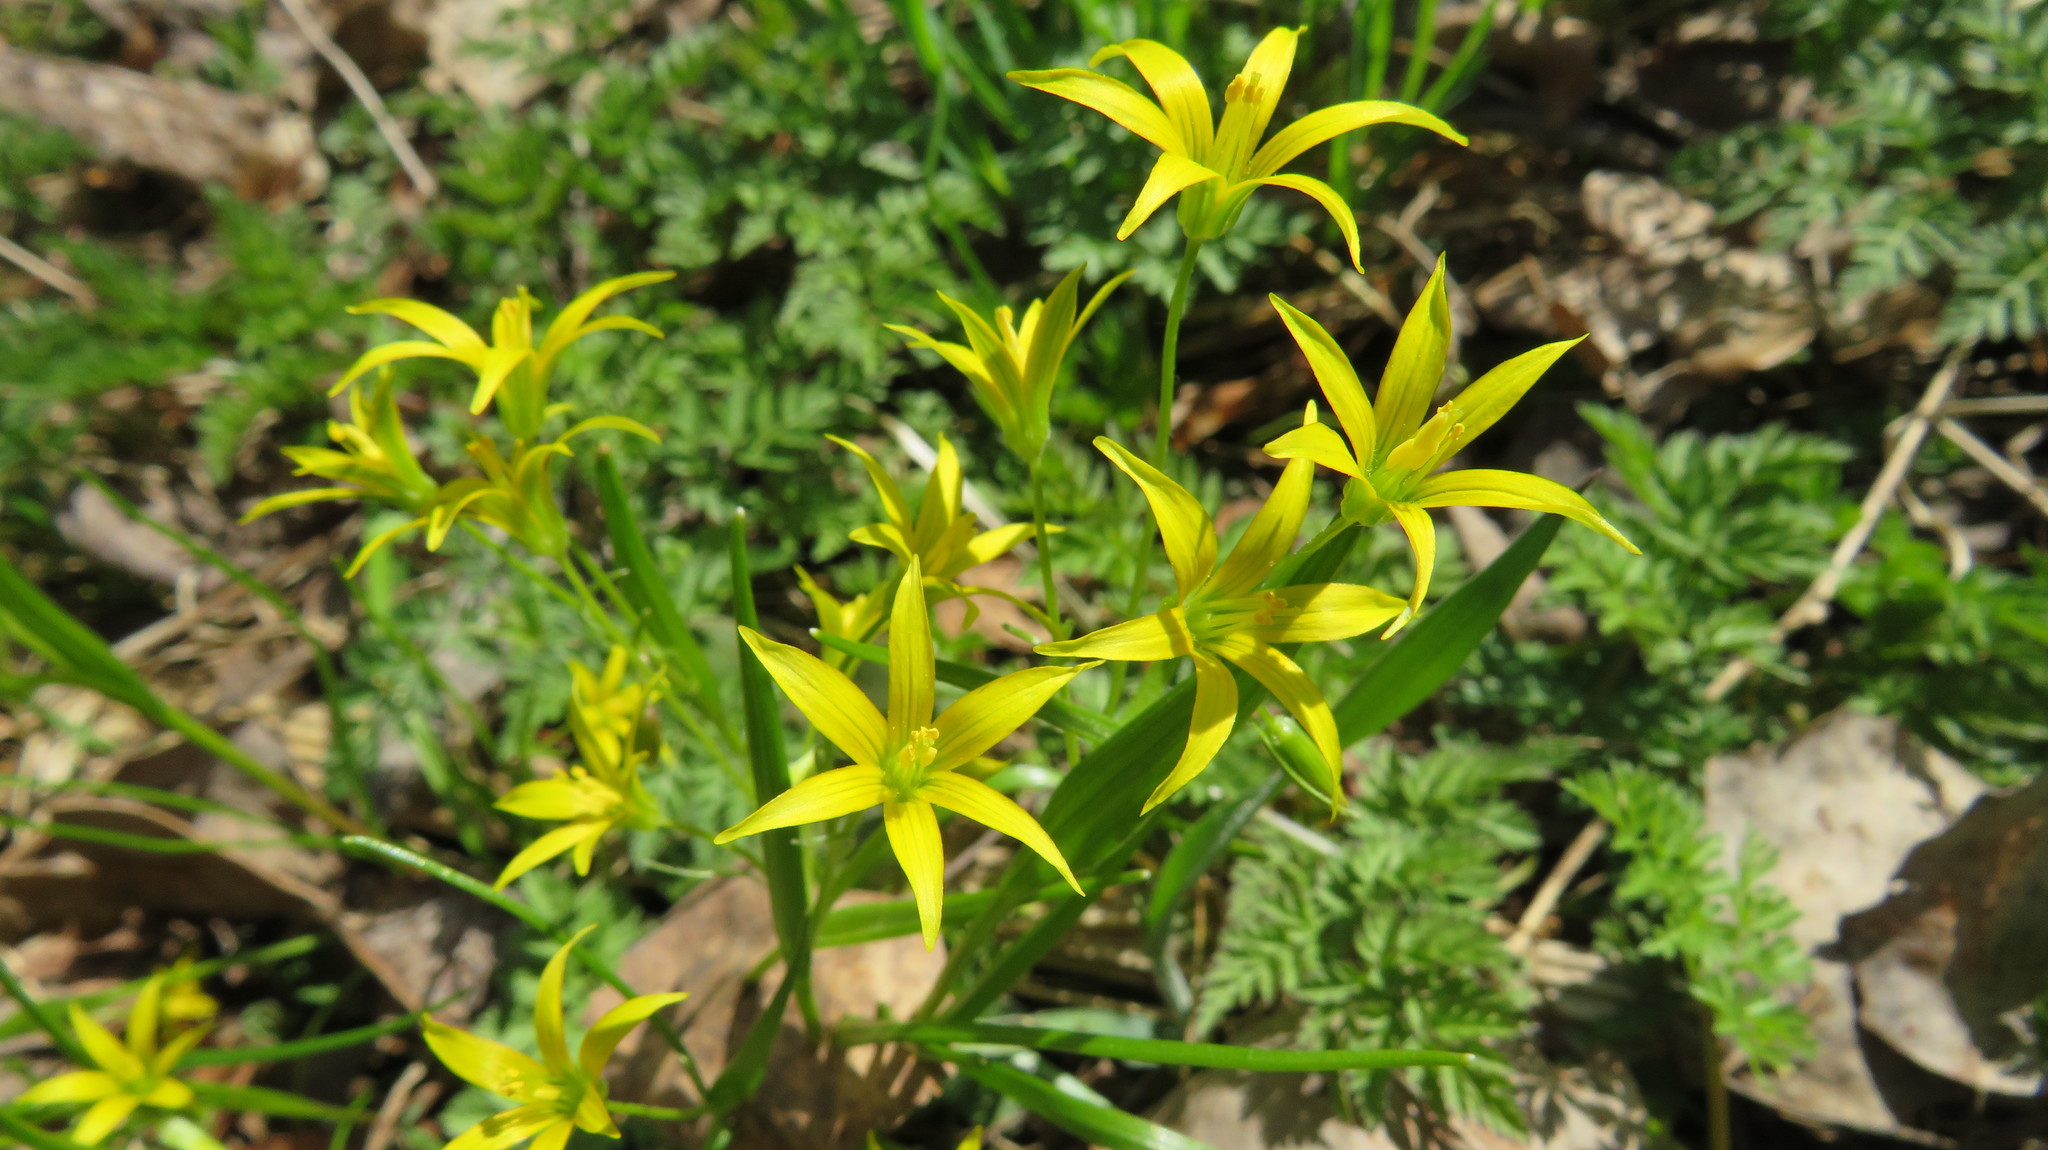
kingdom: Plantae
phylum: Tracheophyta
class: Liliopsida
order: Liliales
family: Liliaceae
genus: Gagea
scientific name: Gagea minima
